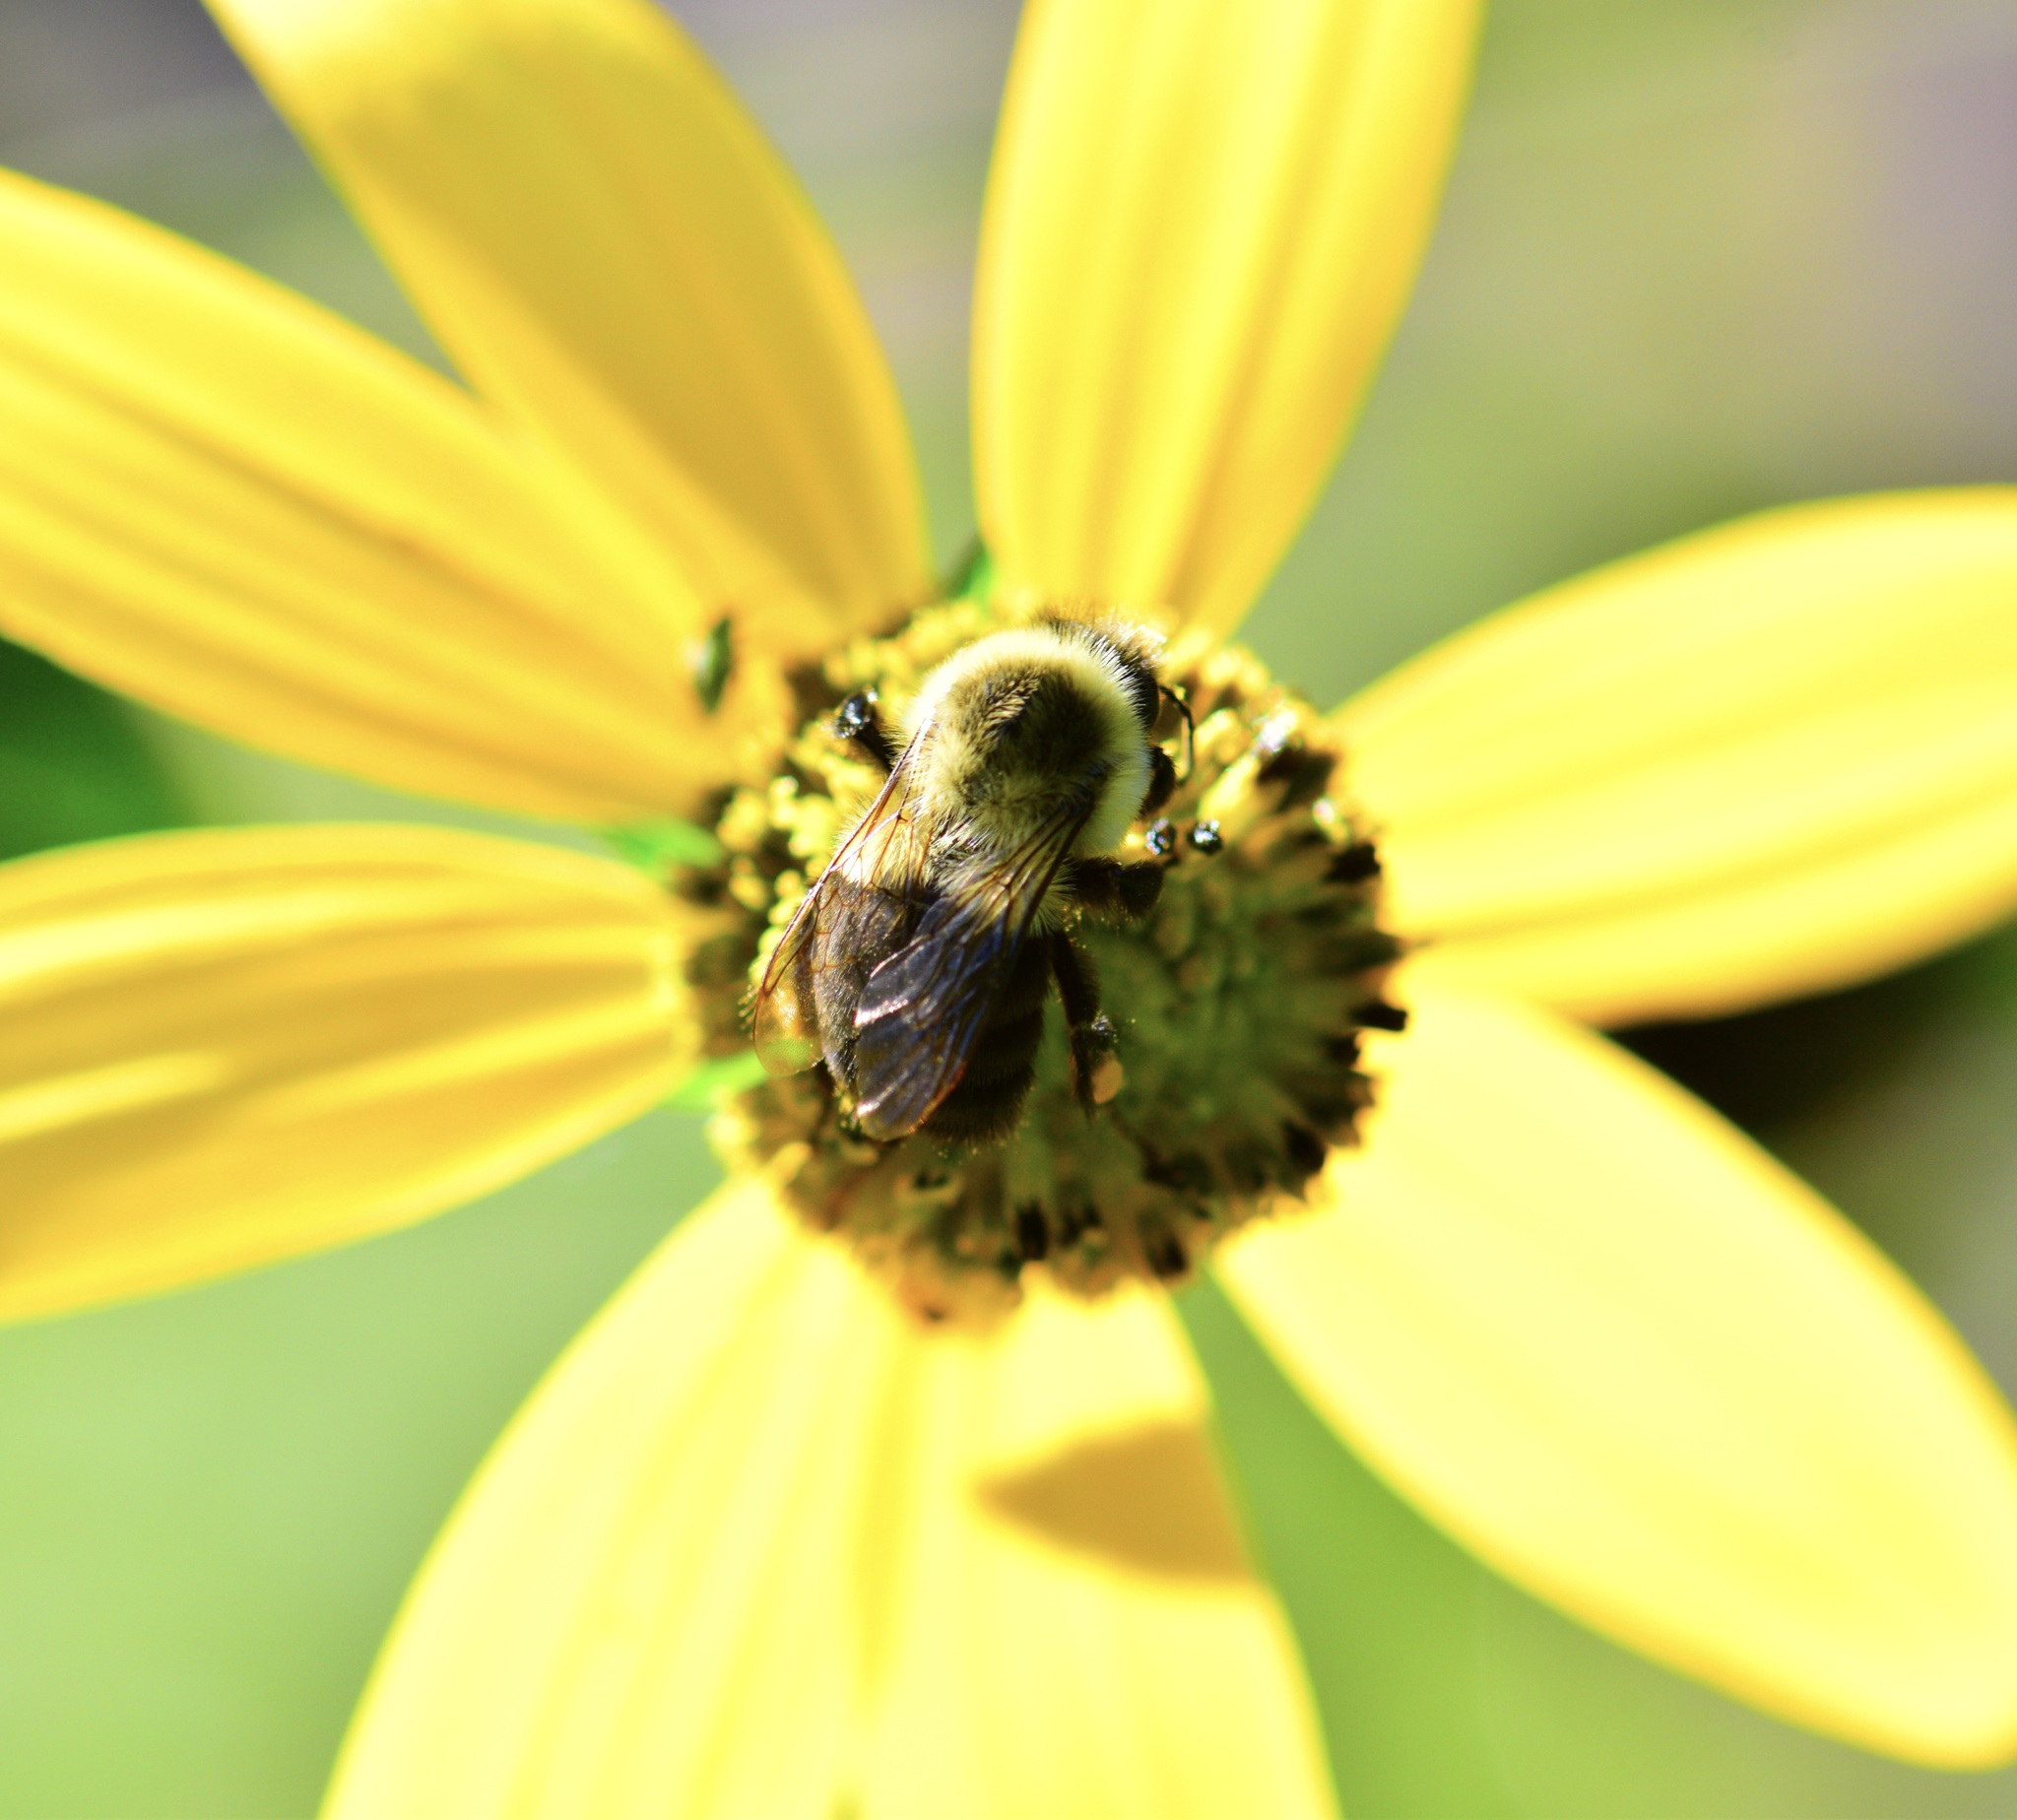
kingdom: Animalia
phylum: Arthropoda
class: Insecta
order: Hymenoptera
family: Apidae
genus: Bombus
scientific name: Bombus impatiens
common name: Common eastern bumble bee
